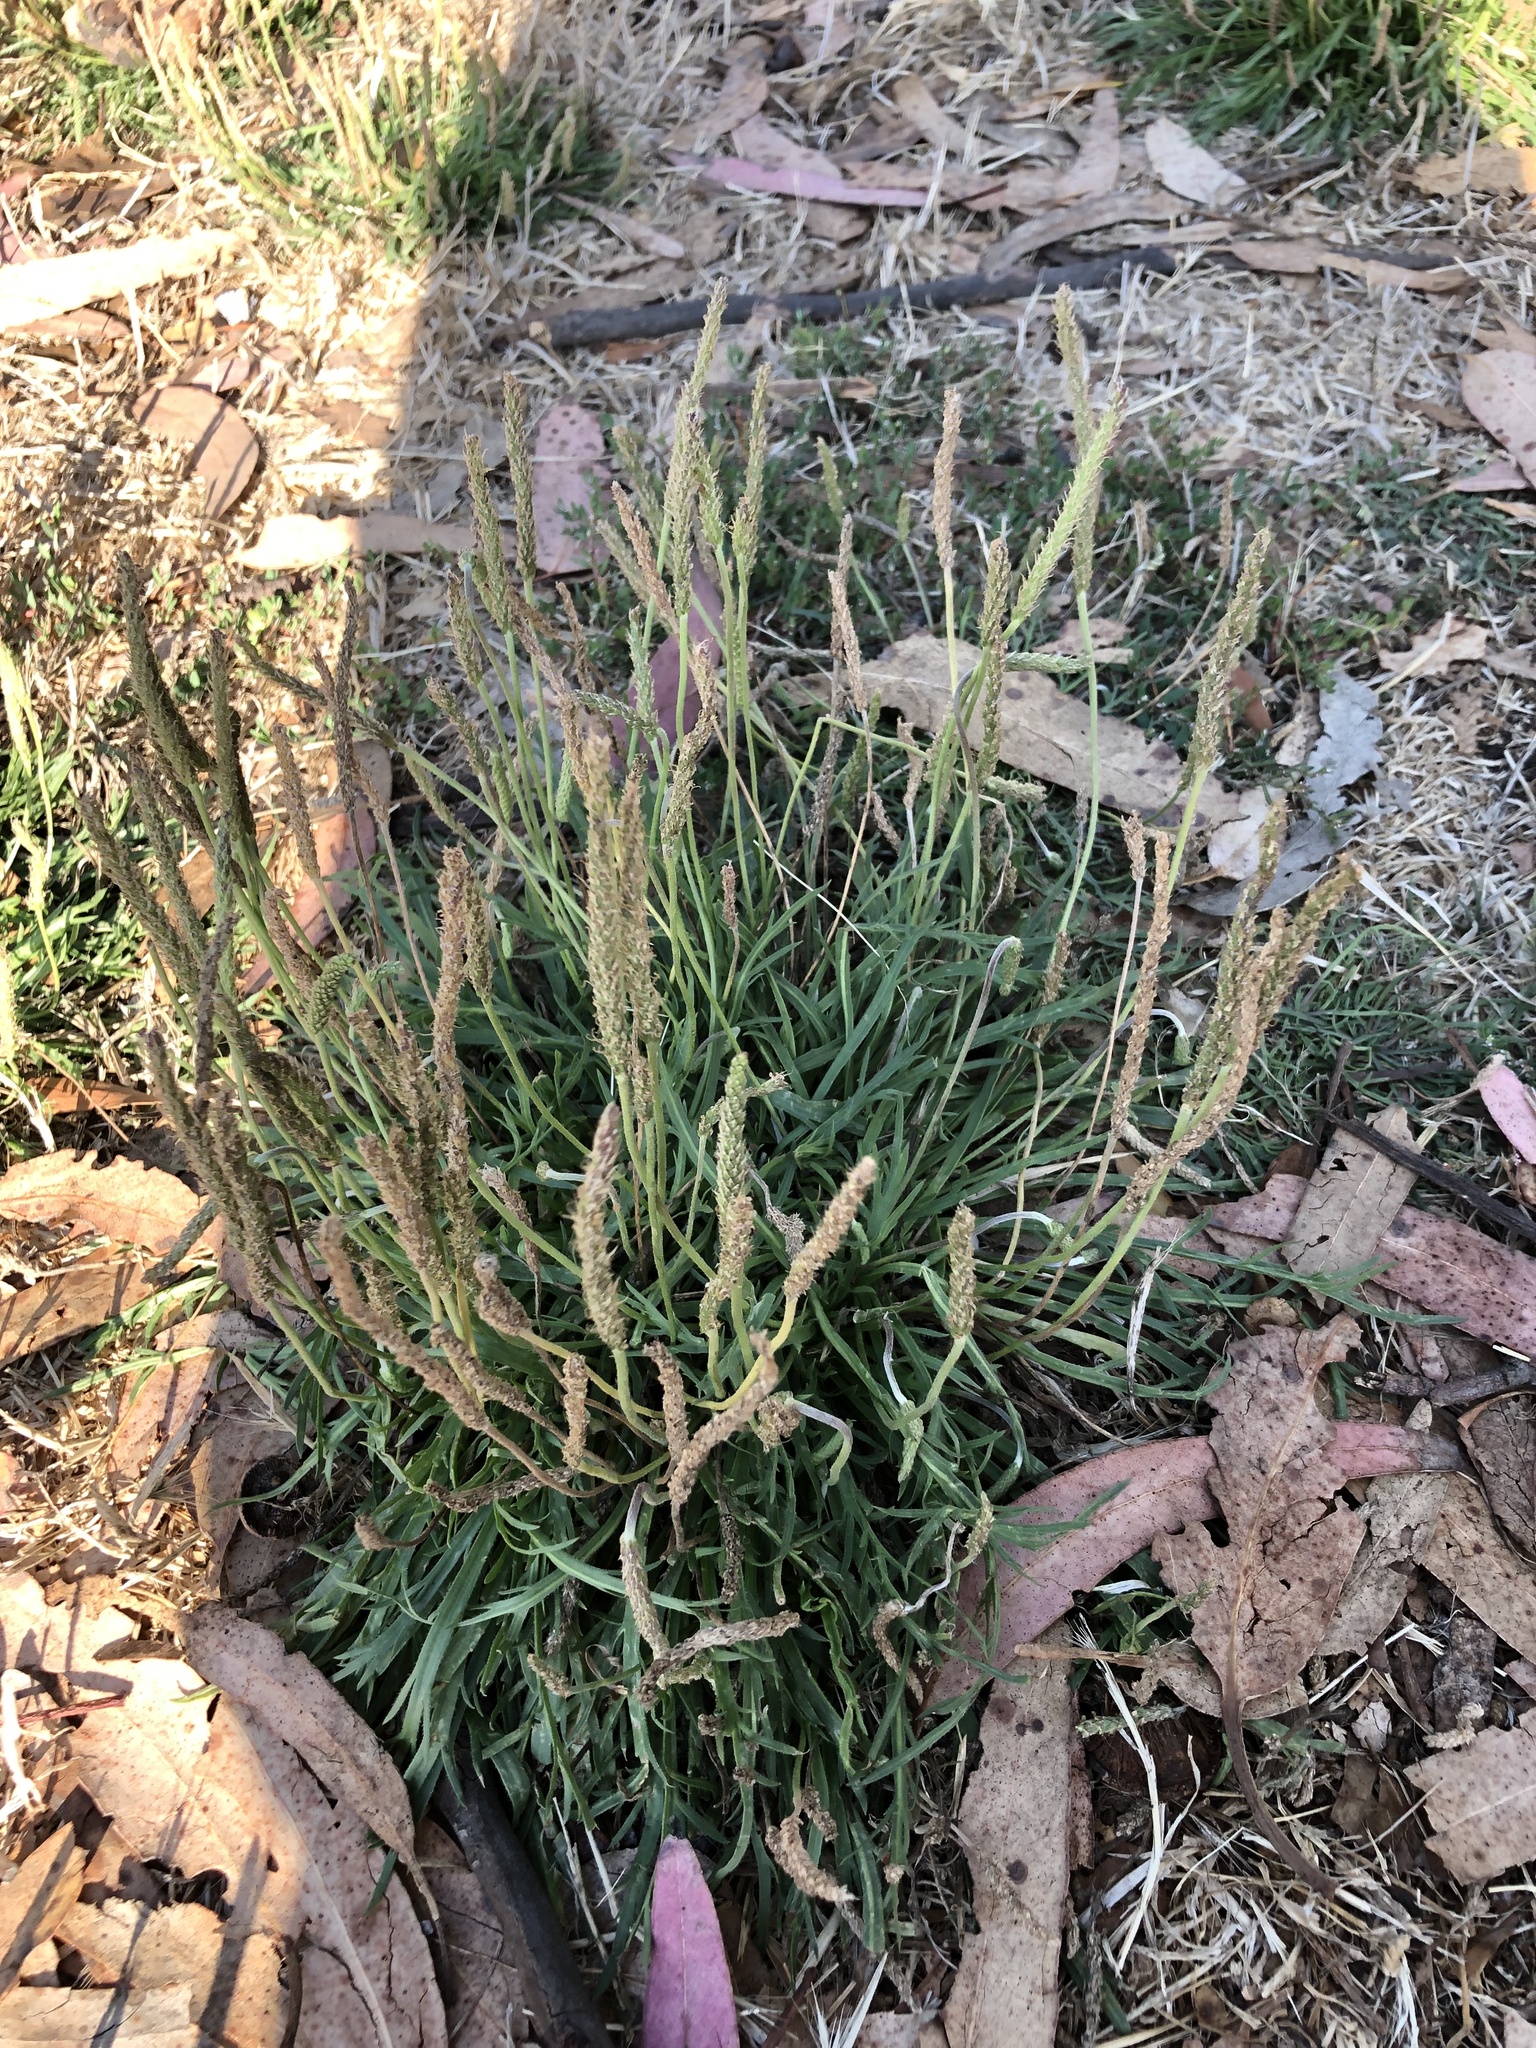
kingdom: Plantae
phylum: Tracheophyta
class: Magnoliopsida
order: Lamiales
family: Plantaginaceae
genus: Plantago
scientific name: Plantago coronopus
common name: Buck's-horn plantain
